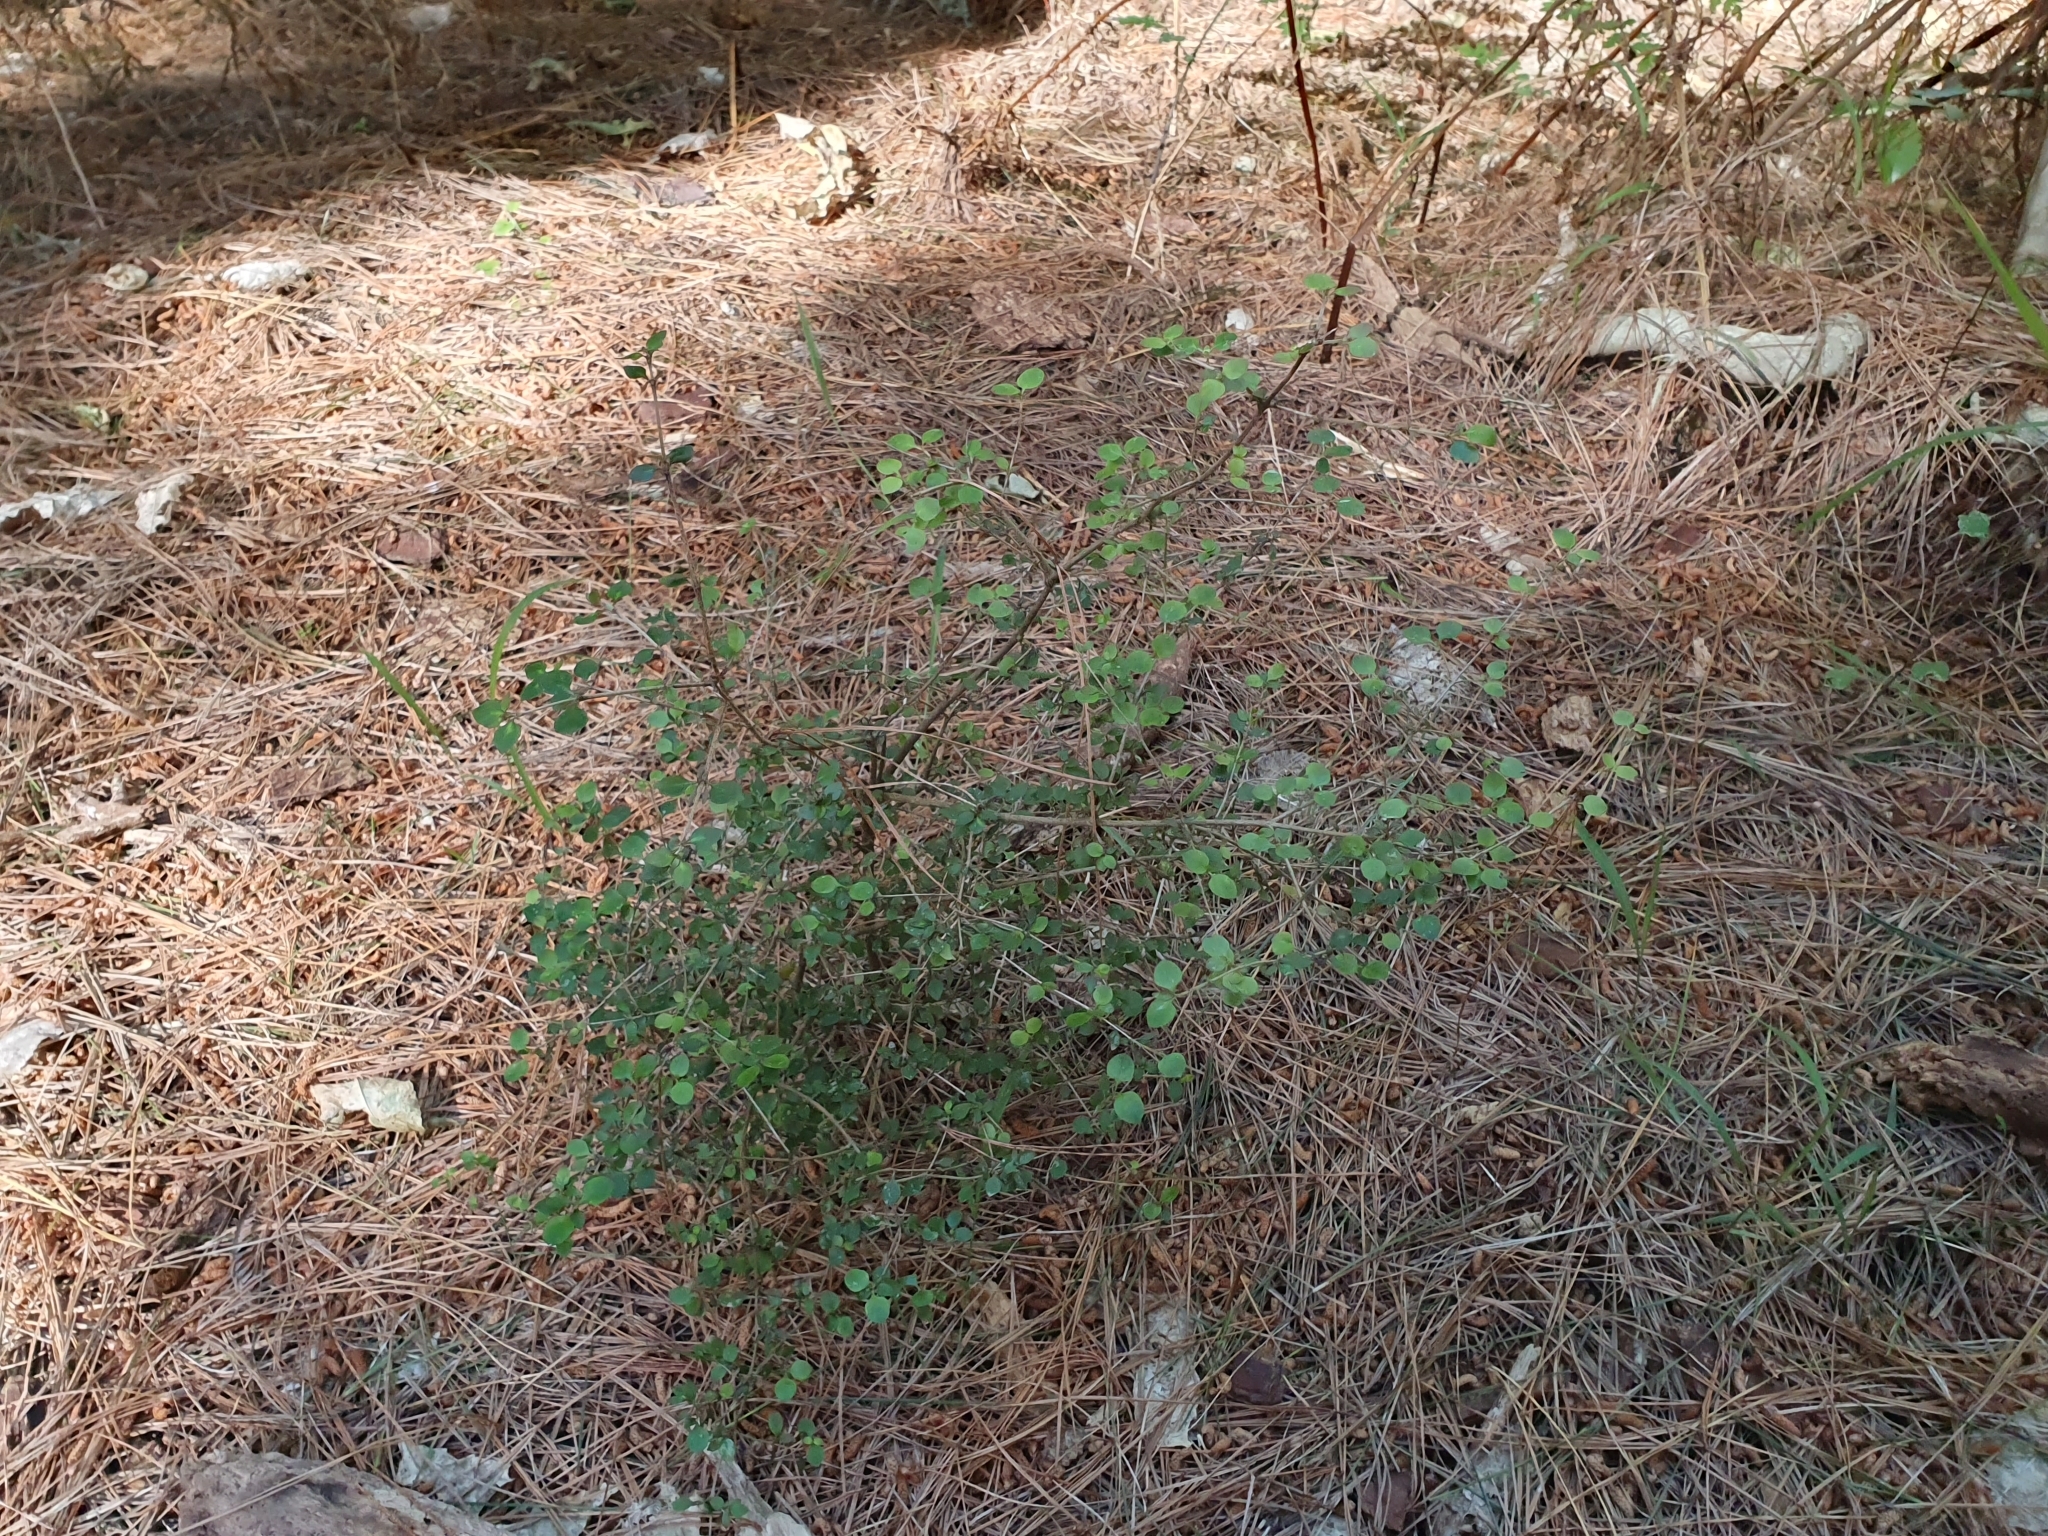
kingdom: Plantae
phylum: Tracheophyta
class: Magnoliopsida
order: Gentianales
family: Rubiaceae
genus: Coprosma
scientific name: Coprosma rhamnoides
